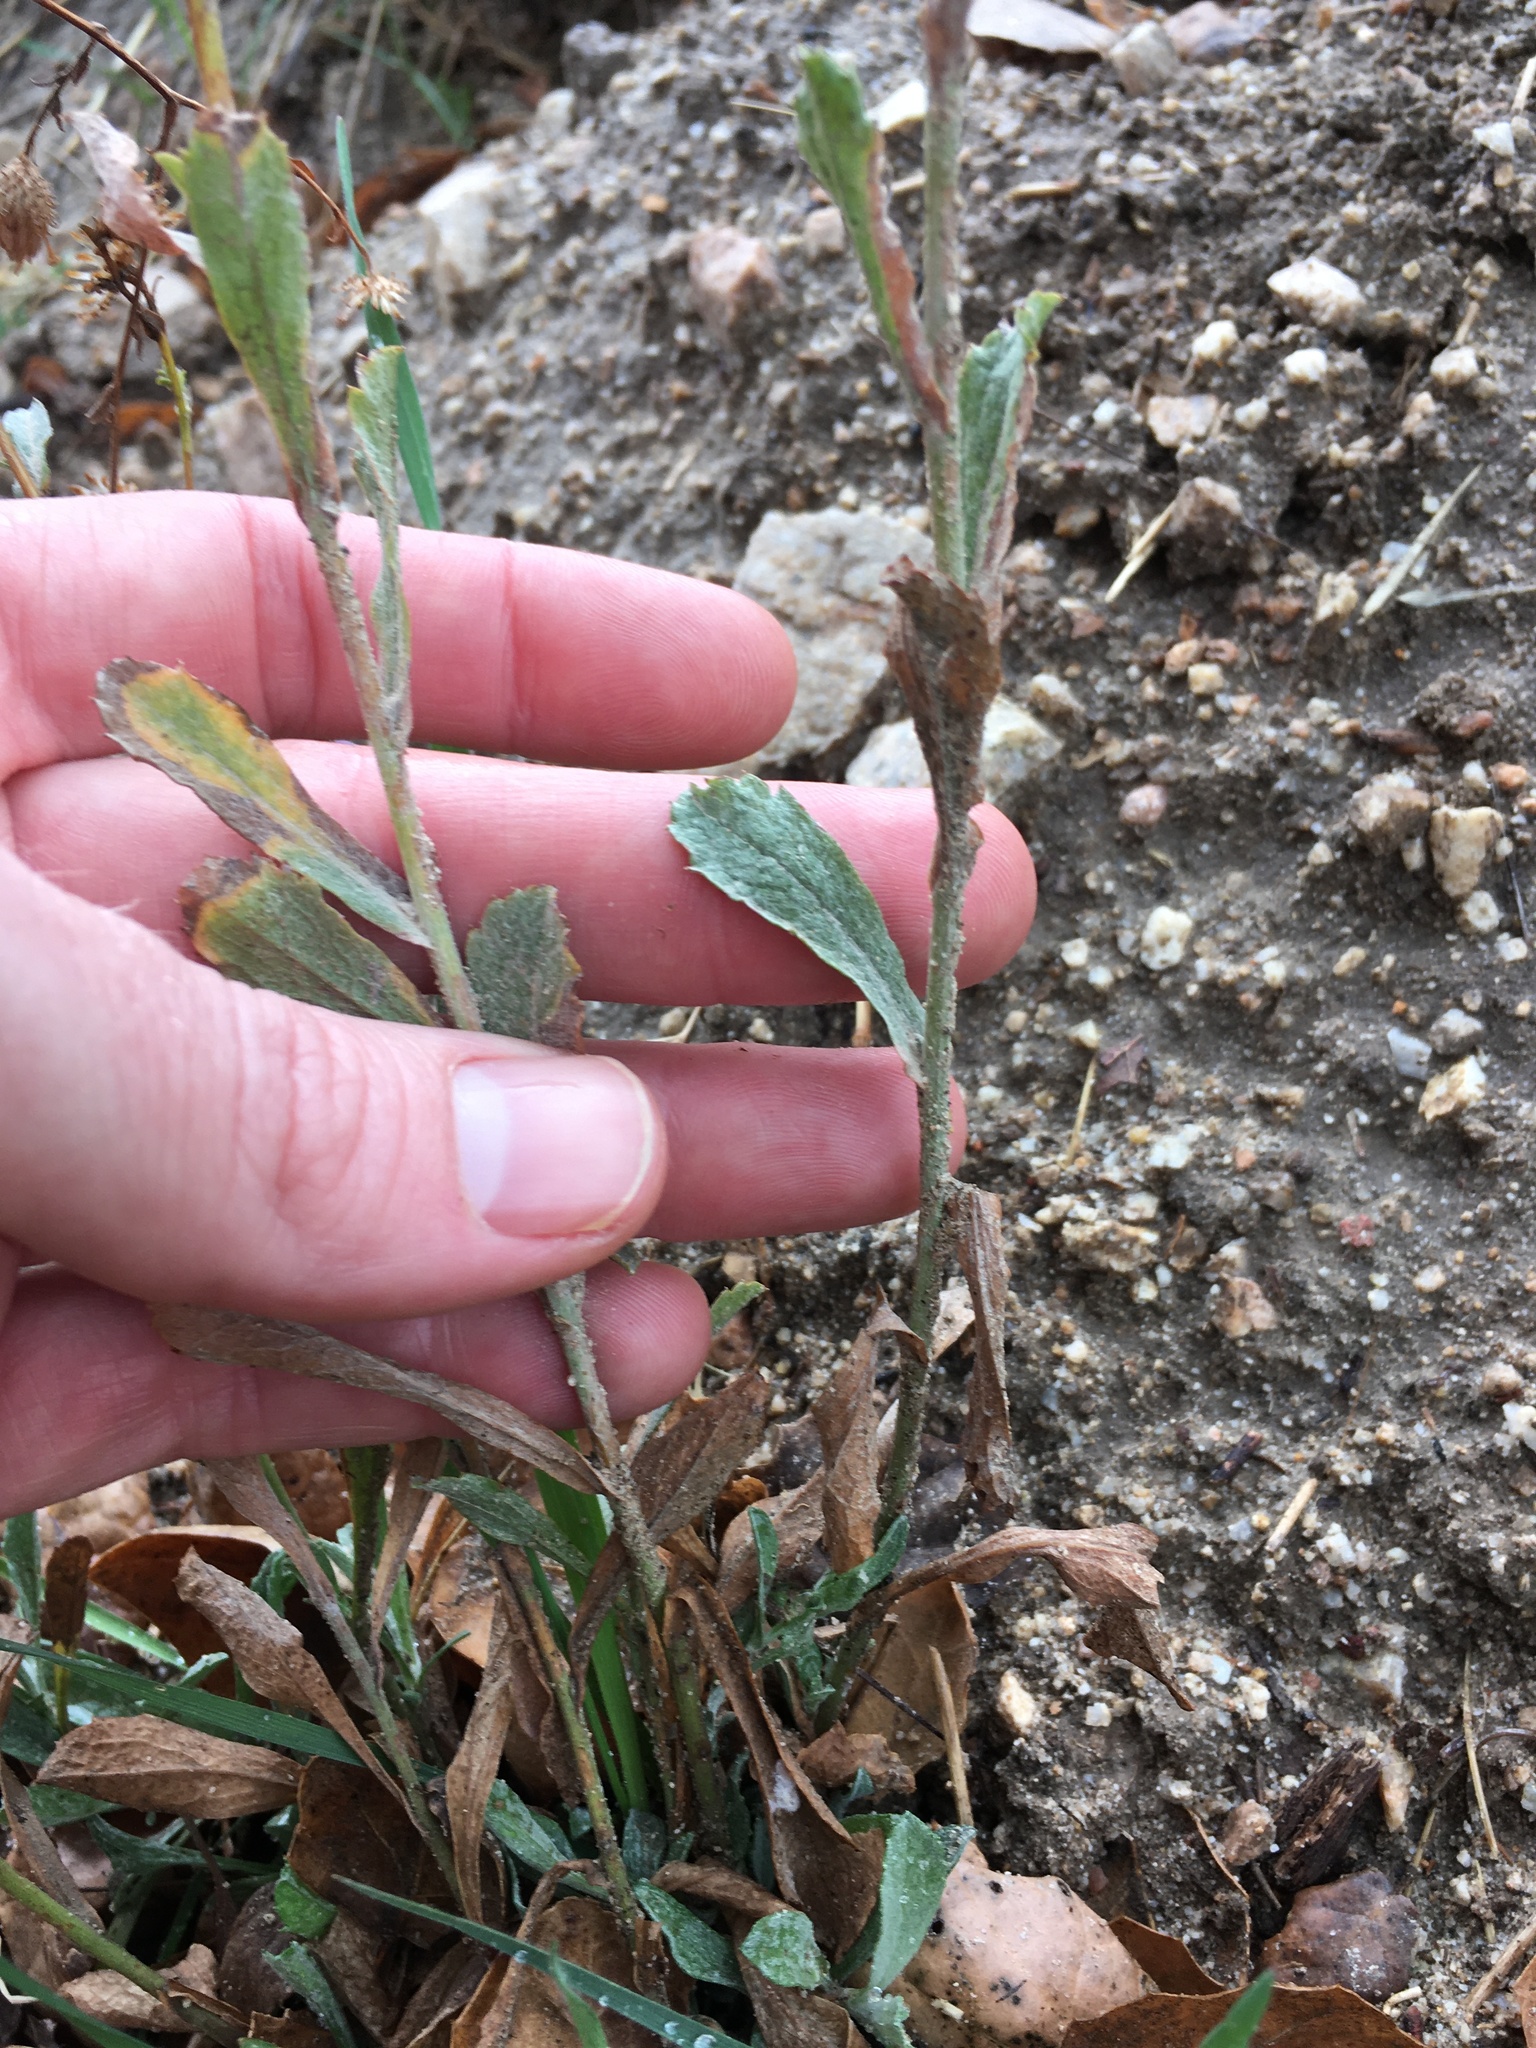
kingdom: Plantae
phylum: Tracheophyta
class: Magnoliopsida
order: Asterales
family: Asteraceae
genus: Corethrogyne
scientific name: Corethrogyne filaginifolia
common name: Sand-aster
